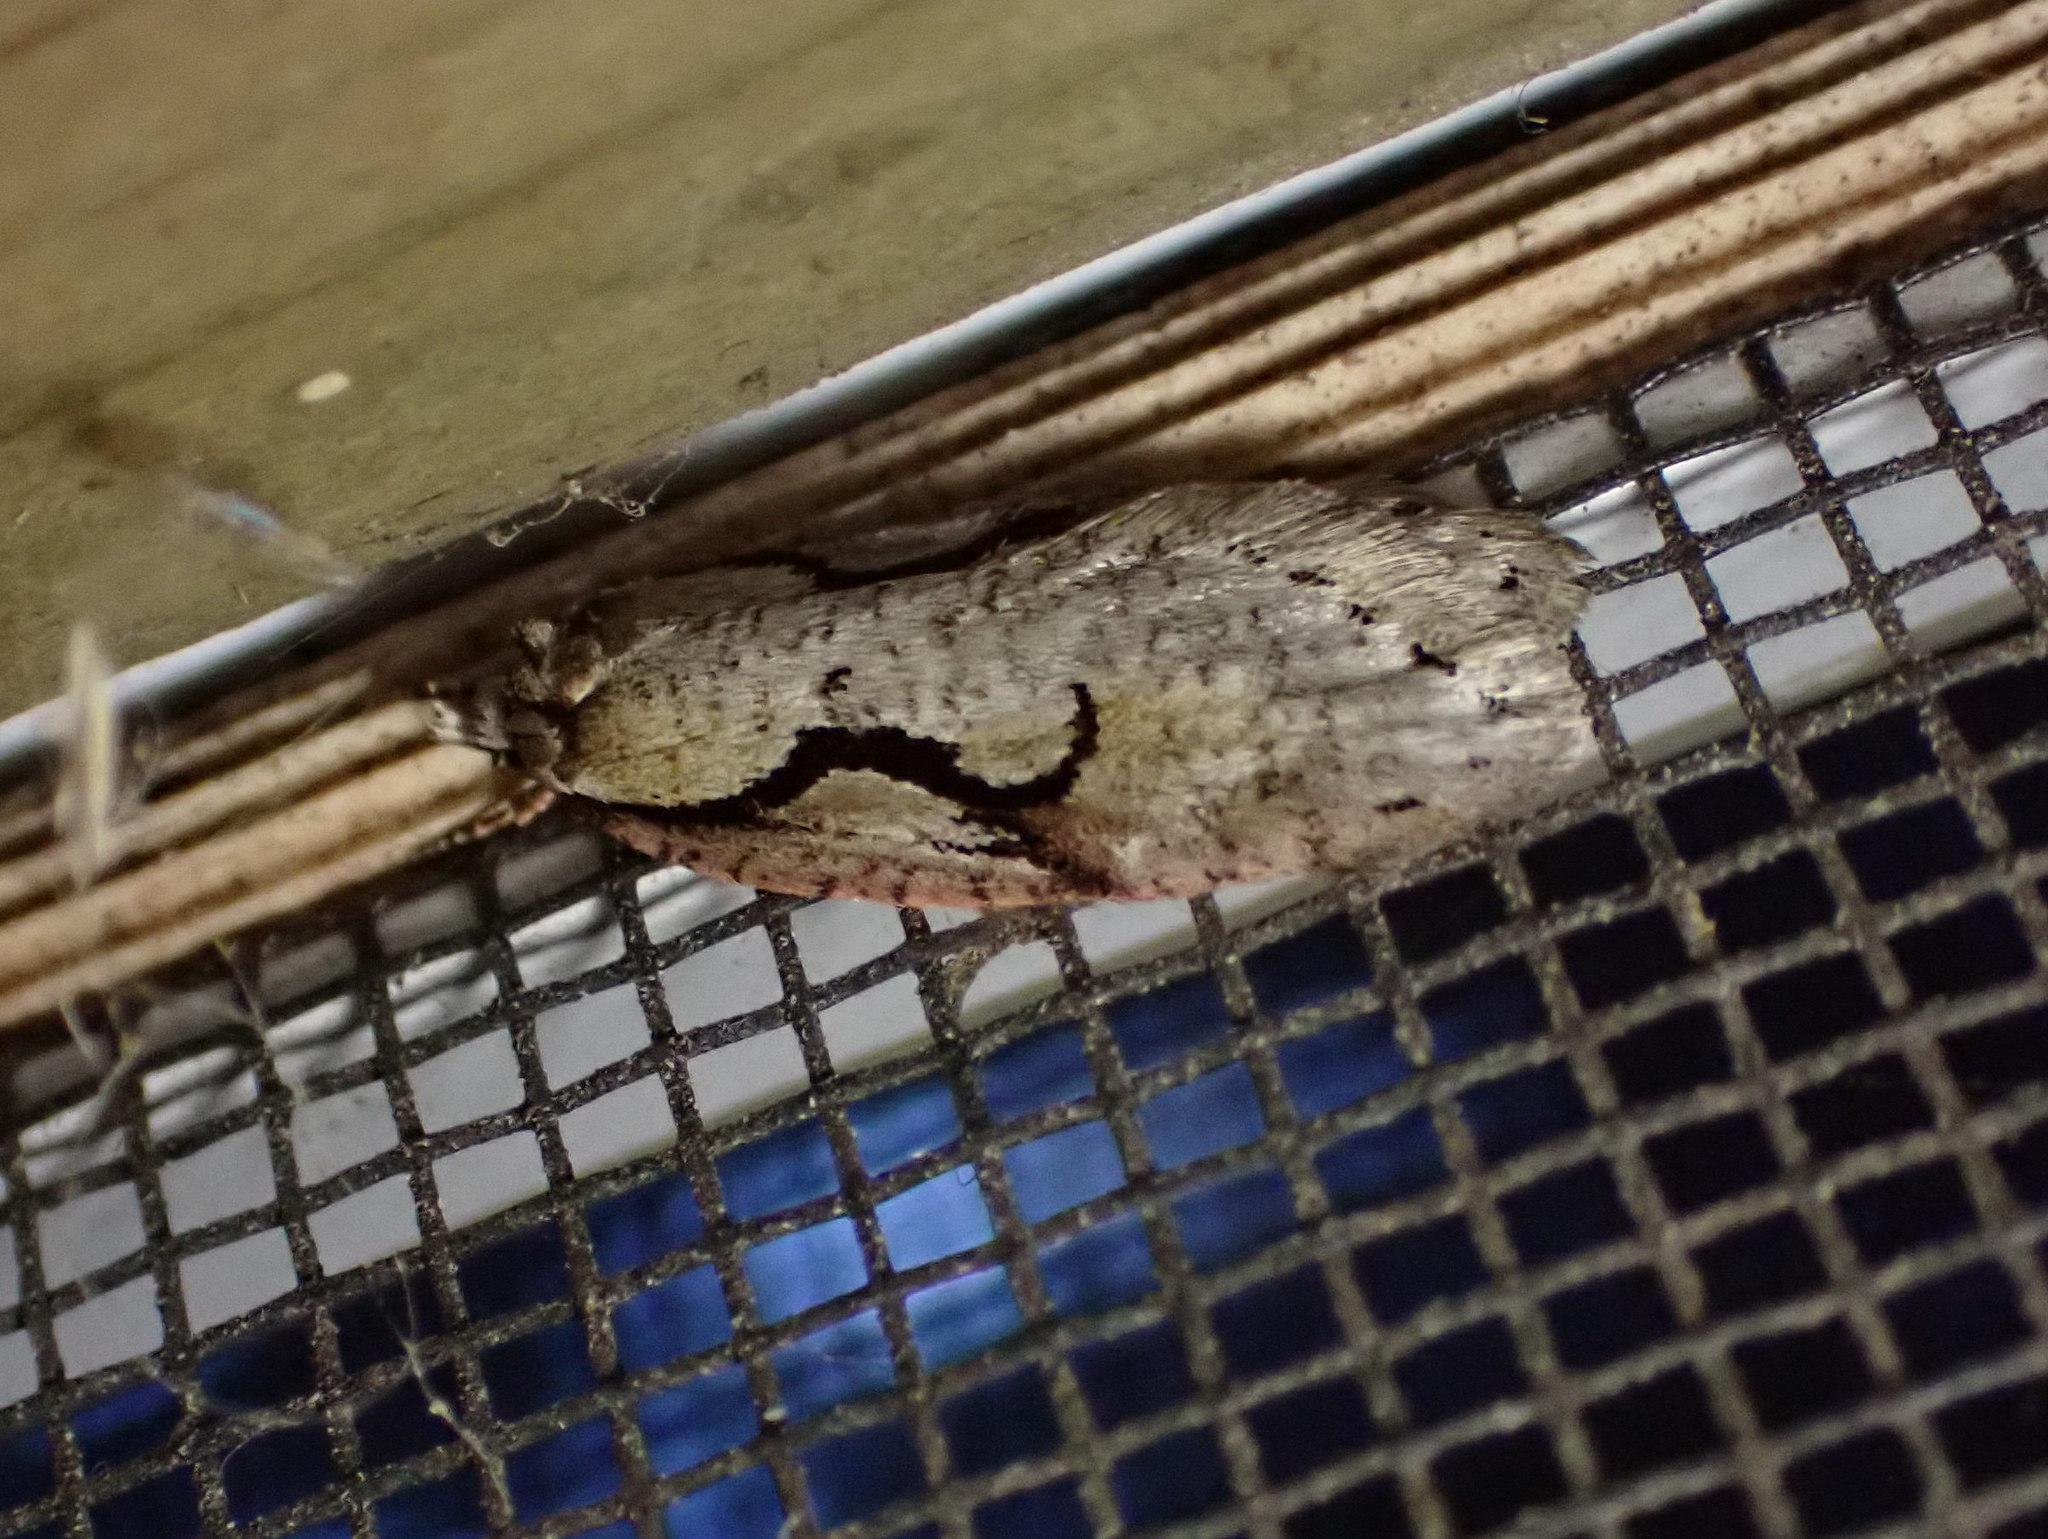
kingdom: Animalia
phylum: Arthropoda
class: Insecta
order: Lepidoptera
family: Depressariidae
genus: Semioscopis
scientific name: Semioscopis packardella
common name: Packard's concealer moth
